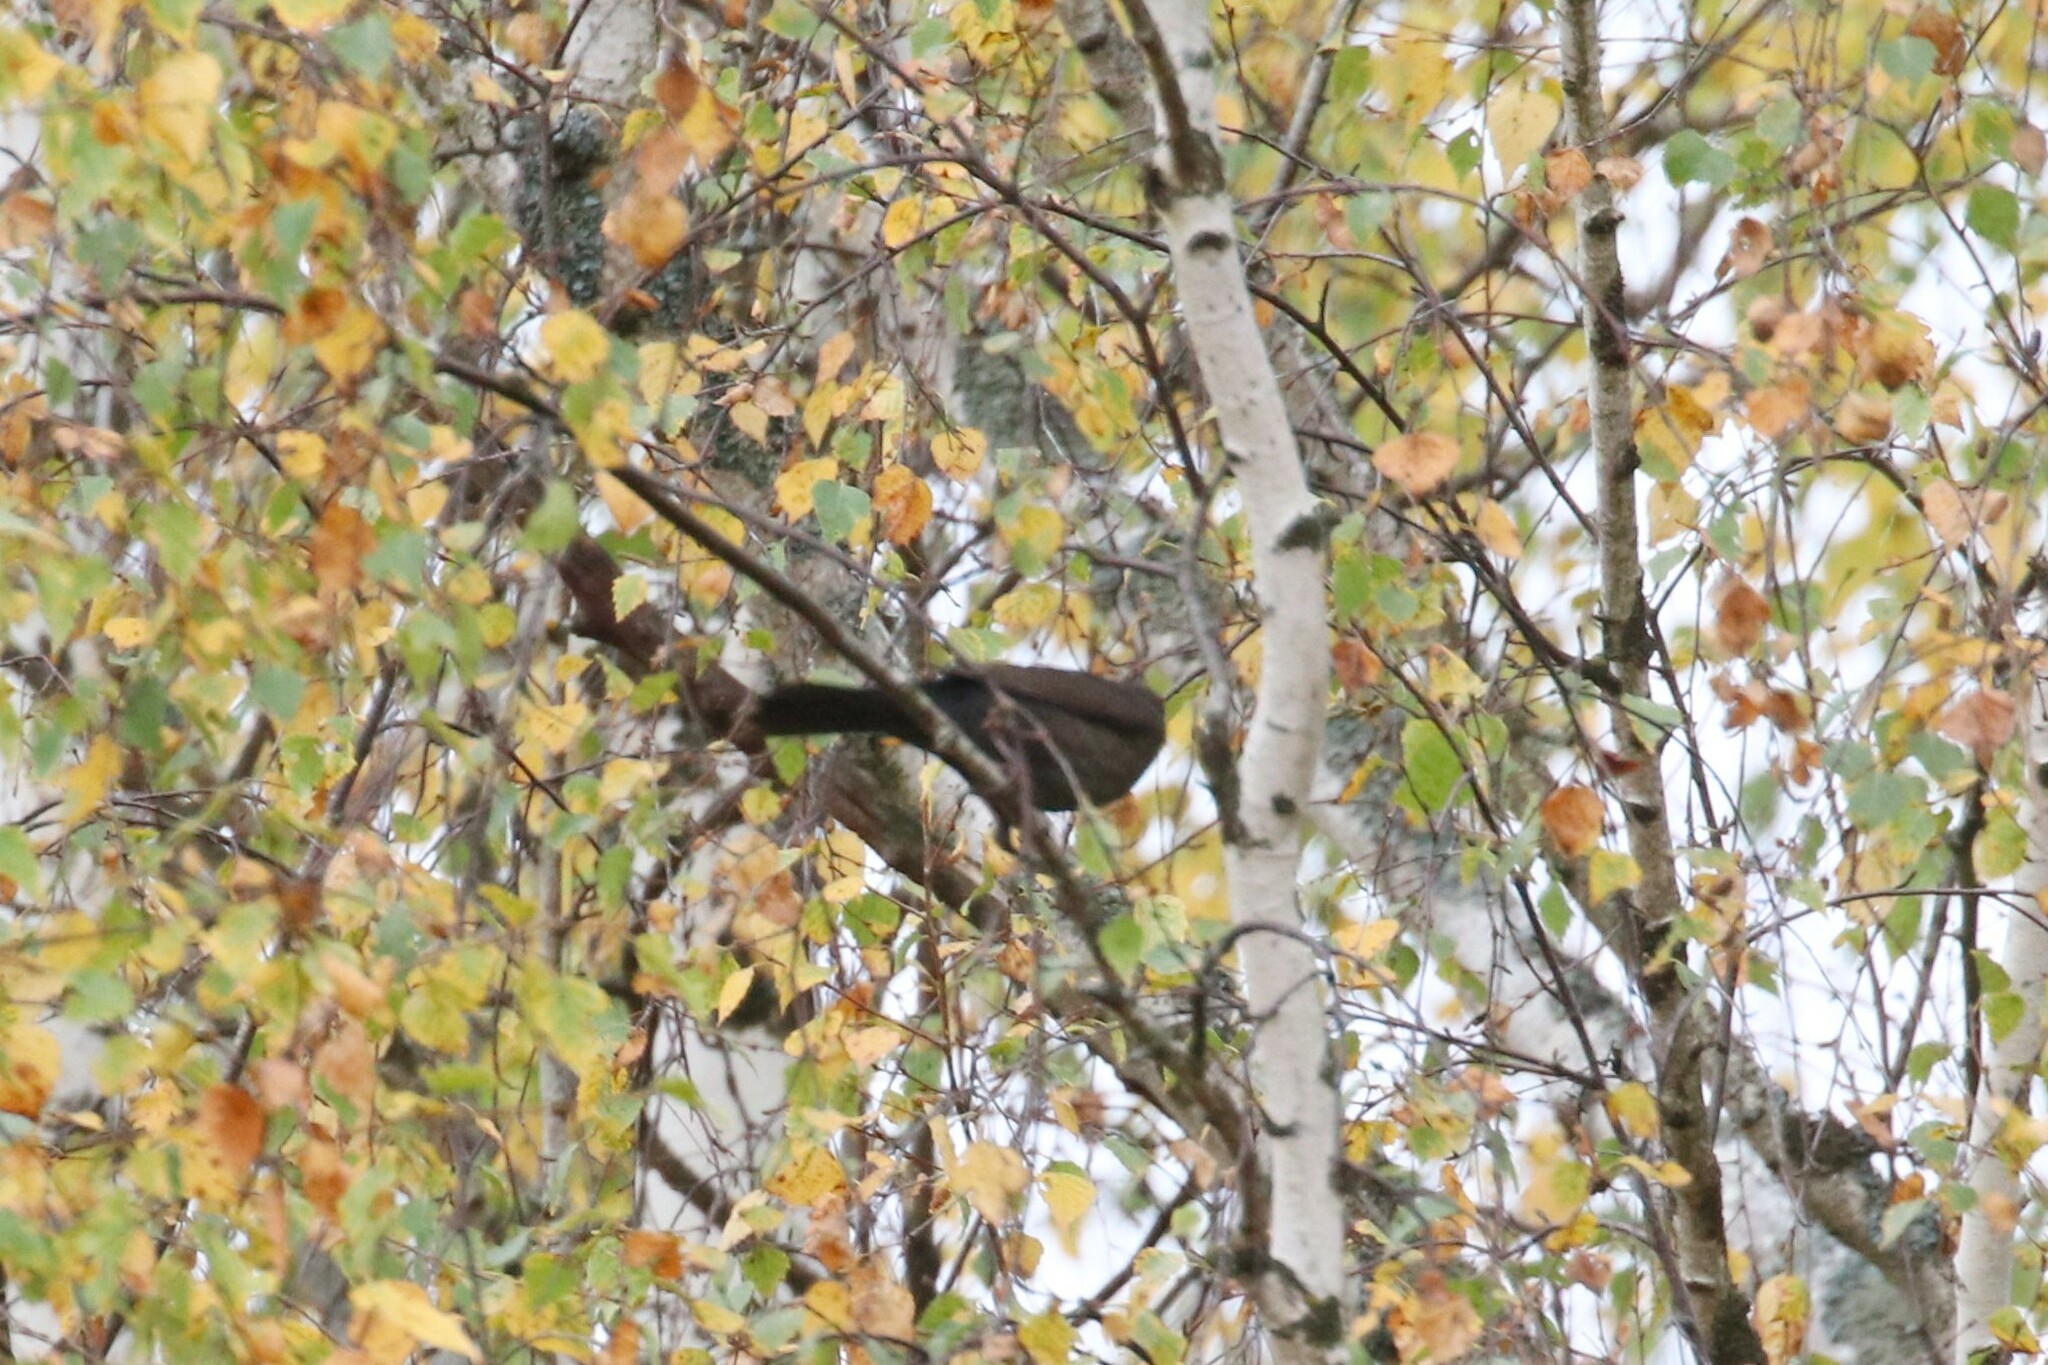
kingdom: Animalia
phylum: Chordata
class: Aves
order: Passeriformes
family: Turdidae
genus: Turdus
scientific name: Turdus merula
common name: Common blackbird
